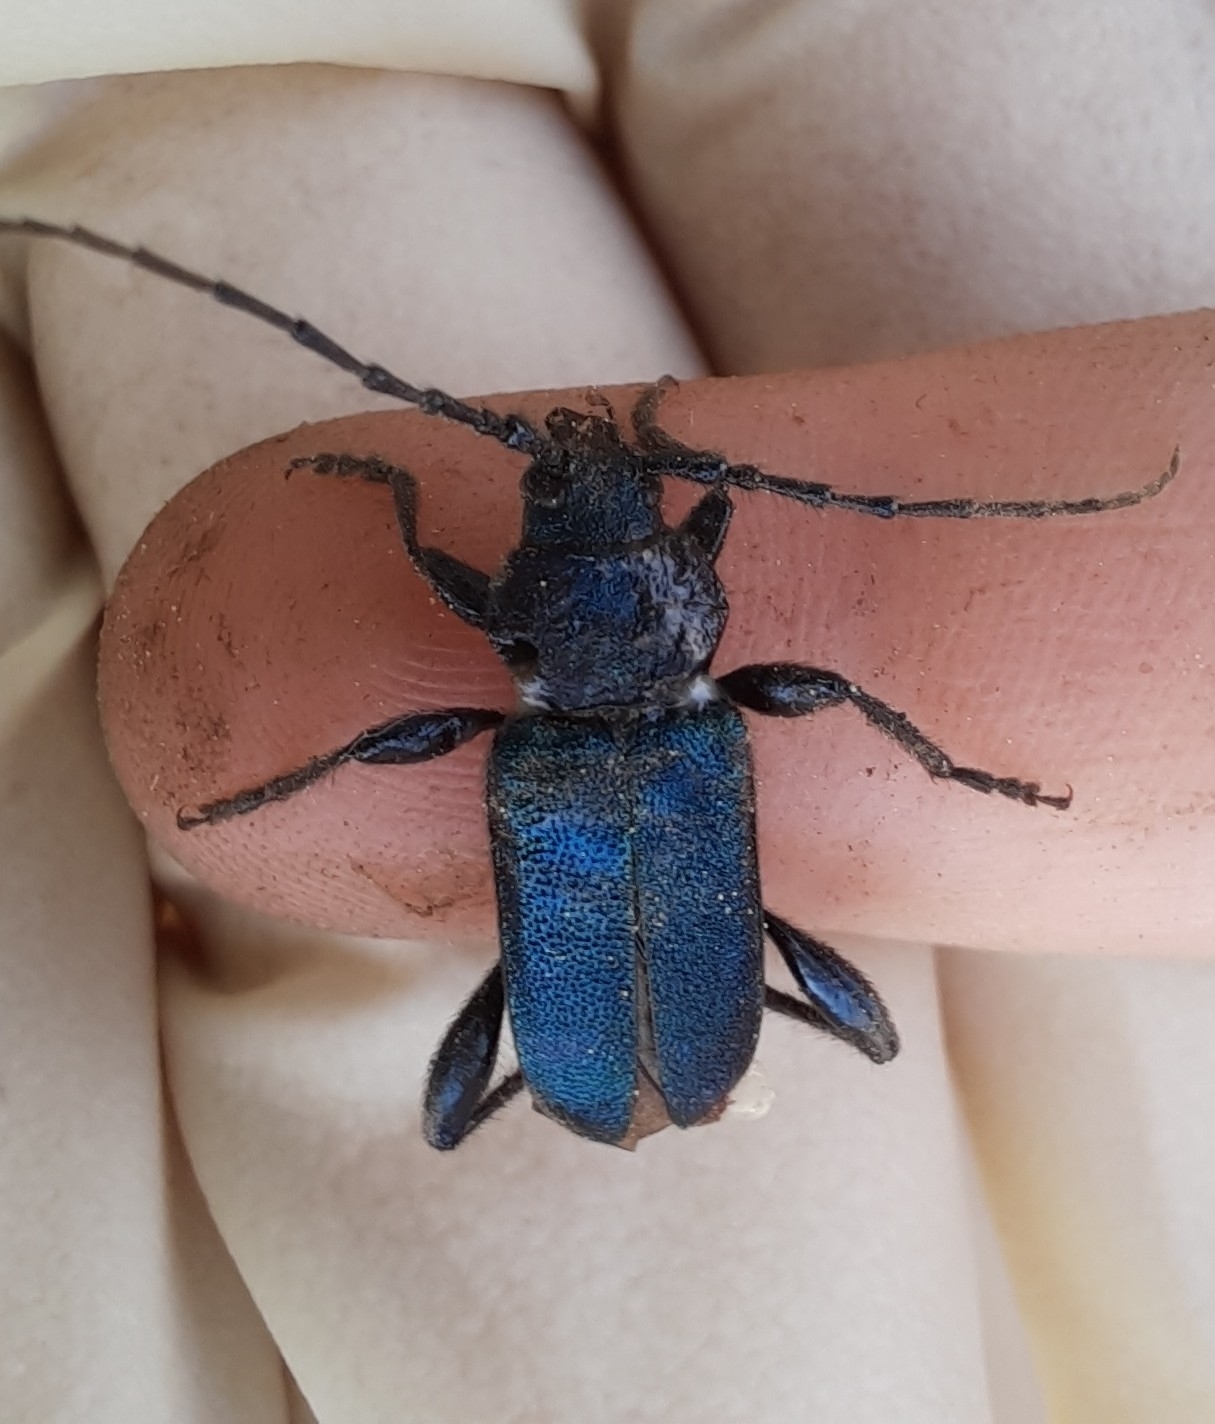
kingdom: Animalia
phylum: Arthropoda
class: Insecta
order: Coleoptera
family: Cerambycidae
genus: Callidium
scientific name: Callidium violaceum
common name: Violet tanbark beetle
